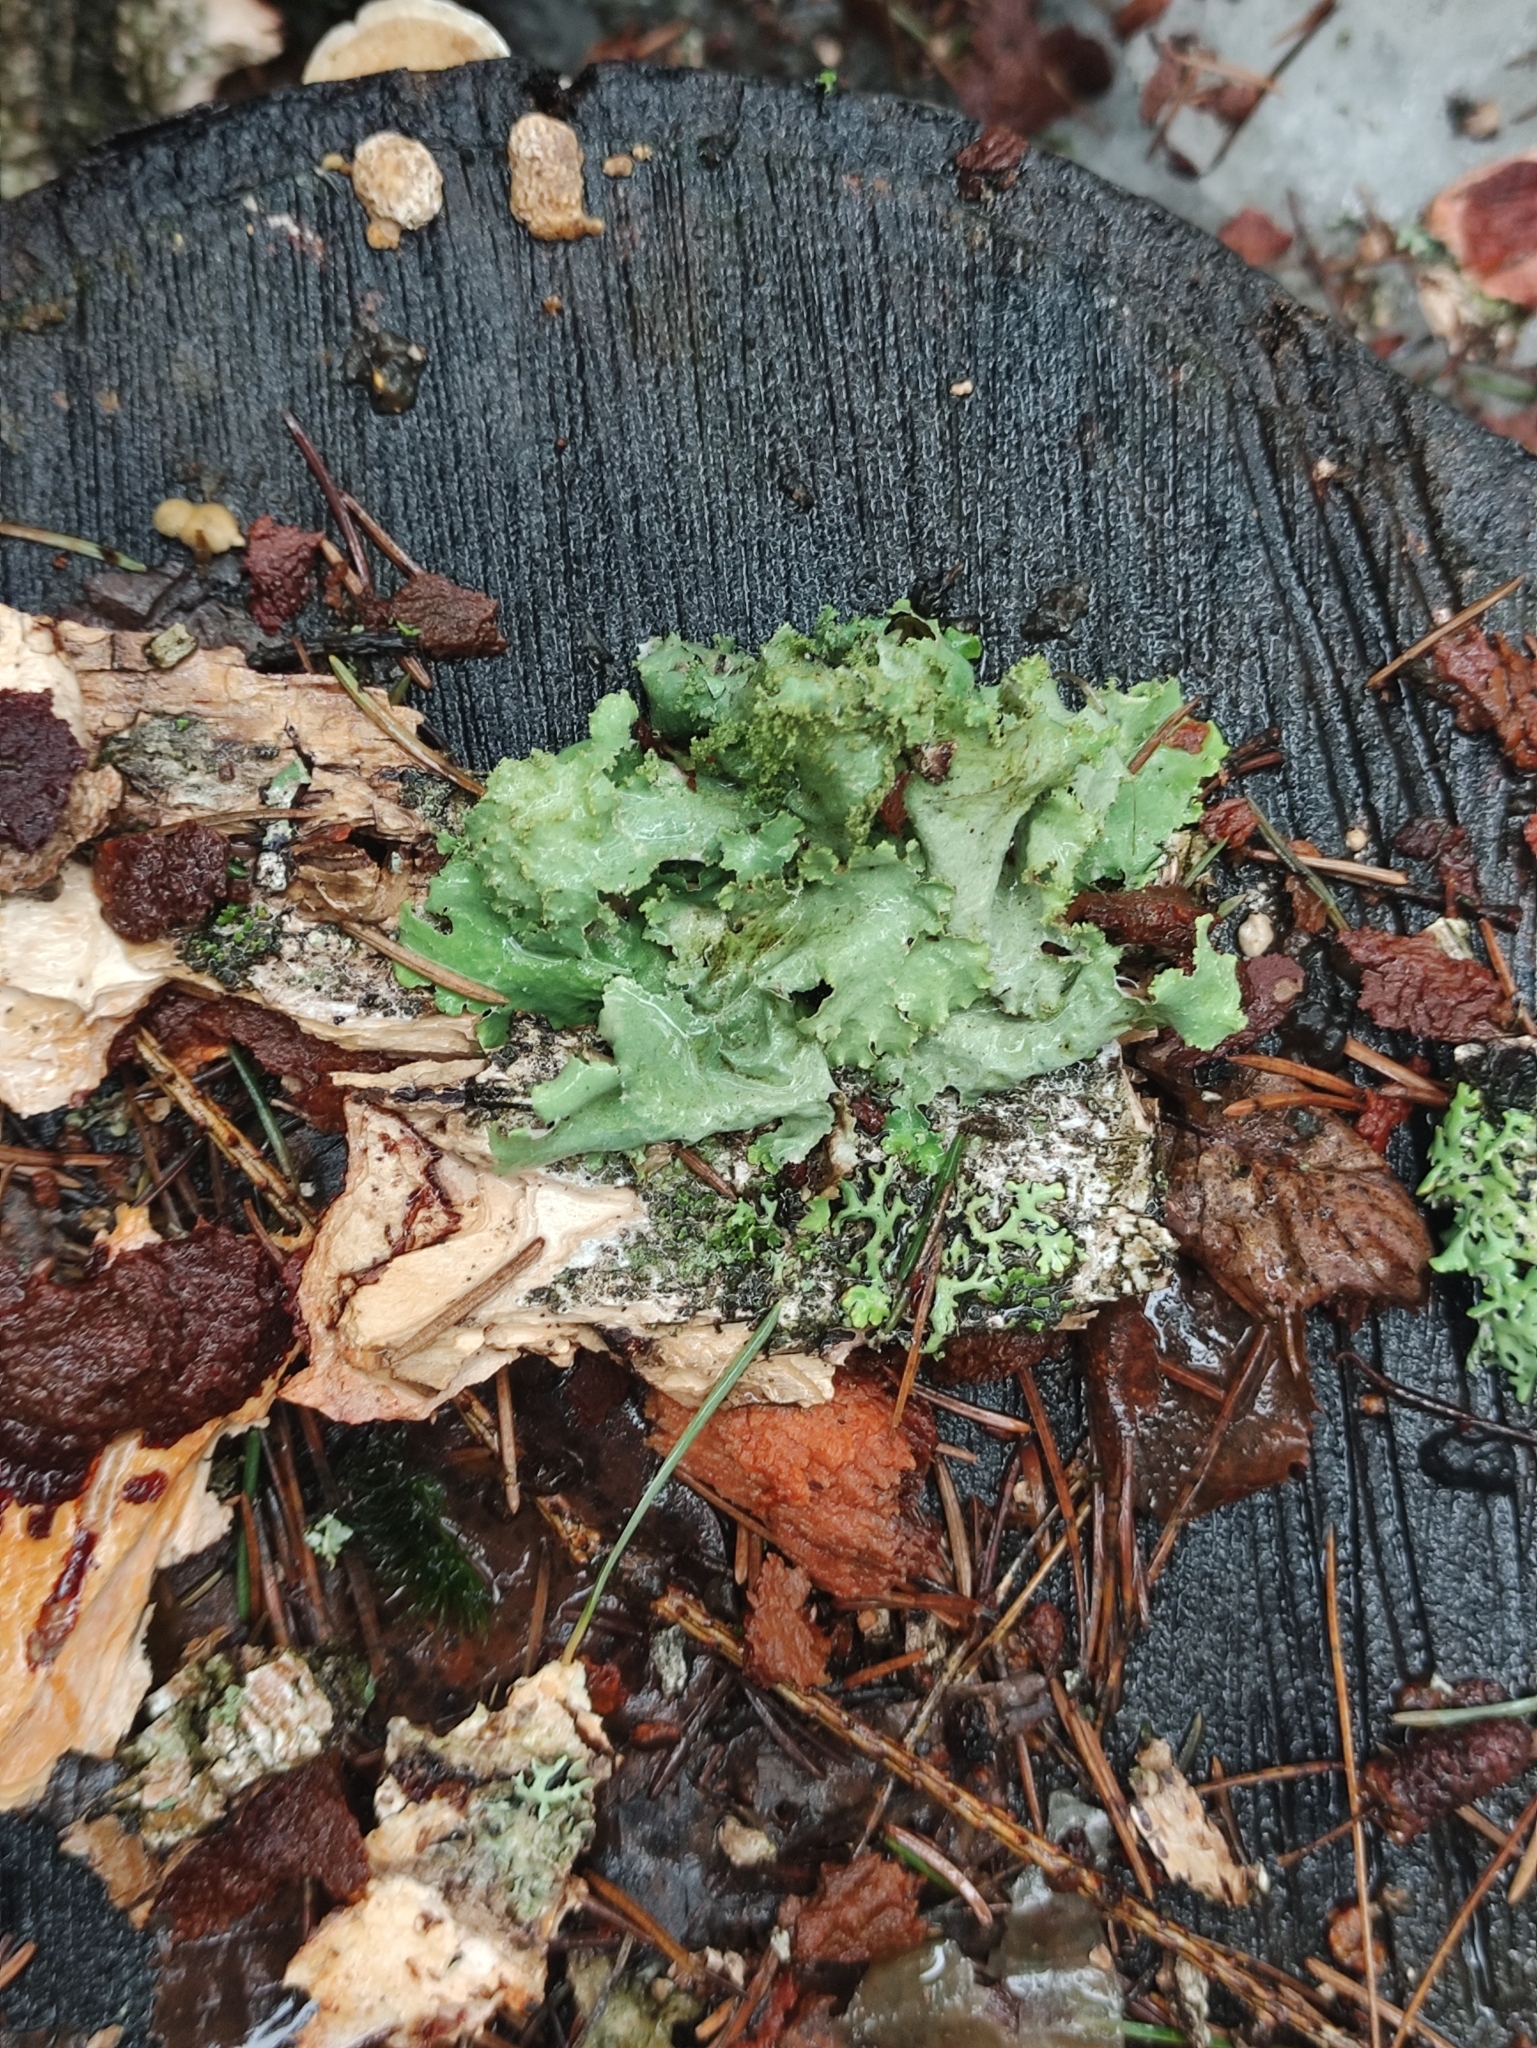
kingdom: Fungi
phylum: Ascomycota
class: Lecanoromycetes
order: Lecanorales
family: Parmeliaceae
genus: Platismatia
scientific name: Platismatia glauca
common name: Varied rag lichen
